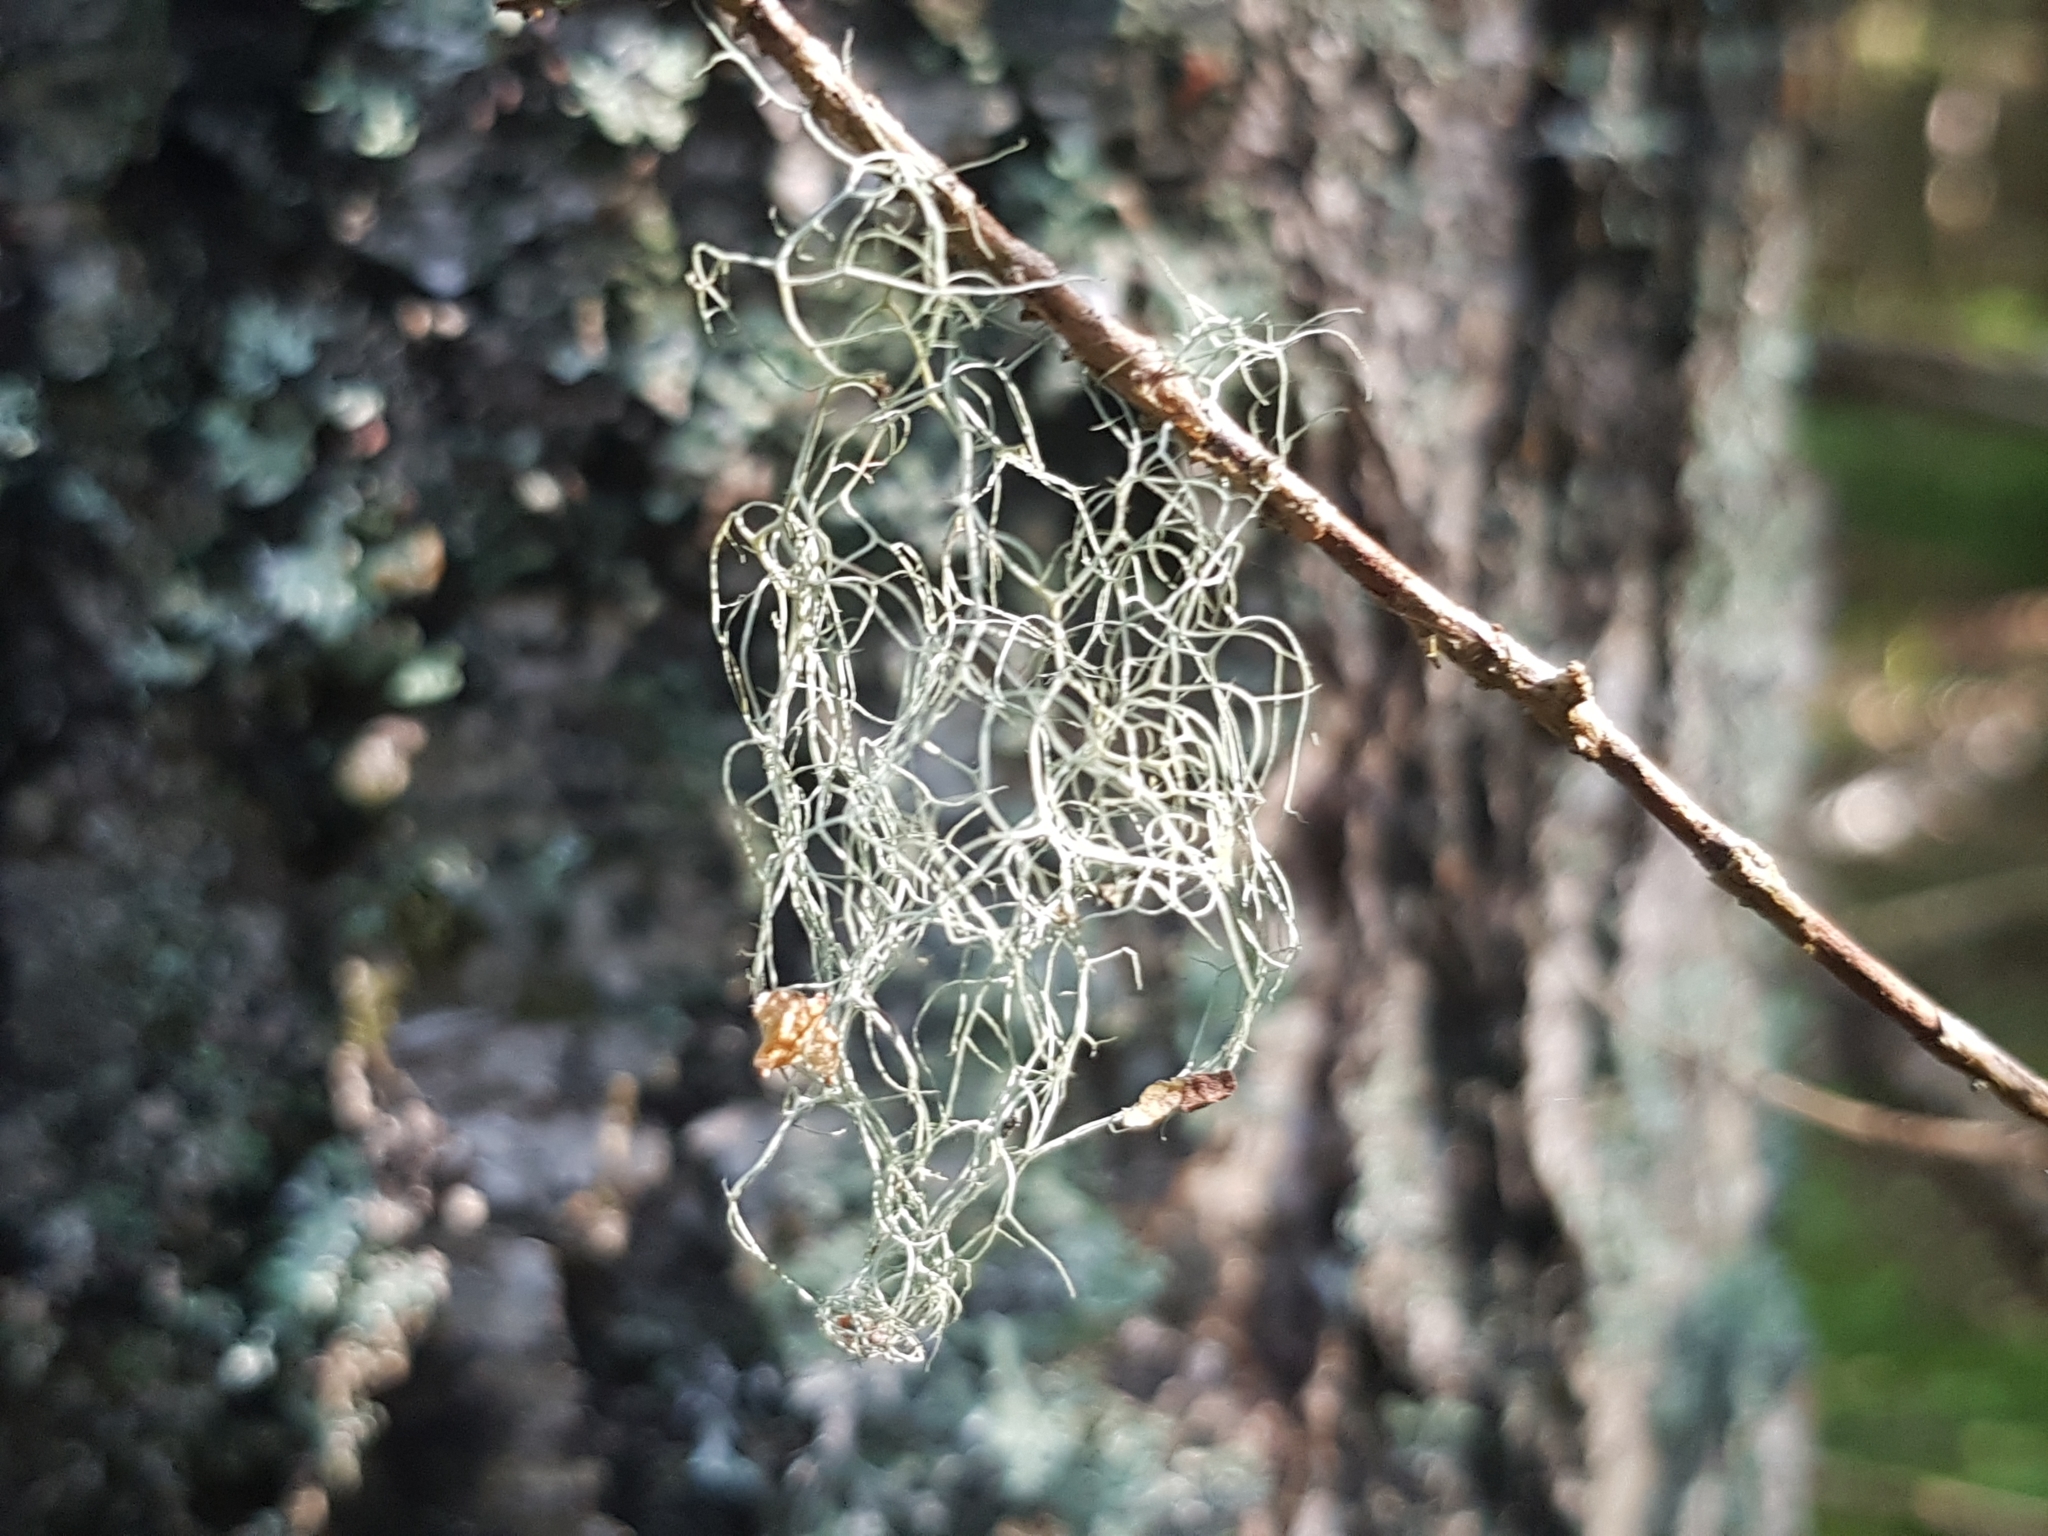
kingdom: Fungi
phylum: Ascomycota
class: Lecanoromycetes
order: Lecanorales
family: Parmeliaceae
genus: Bryoria
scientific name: Bryoria fuscescens
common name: Pale-footed horsehair lichen
